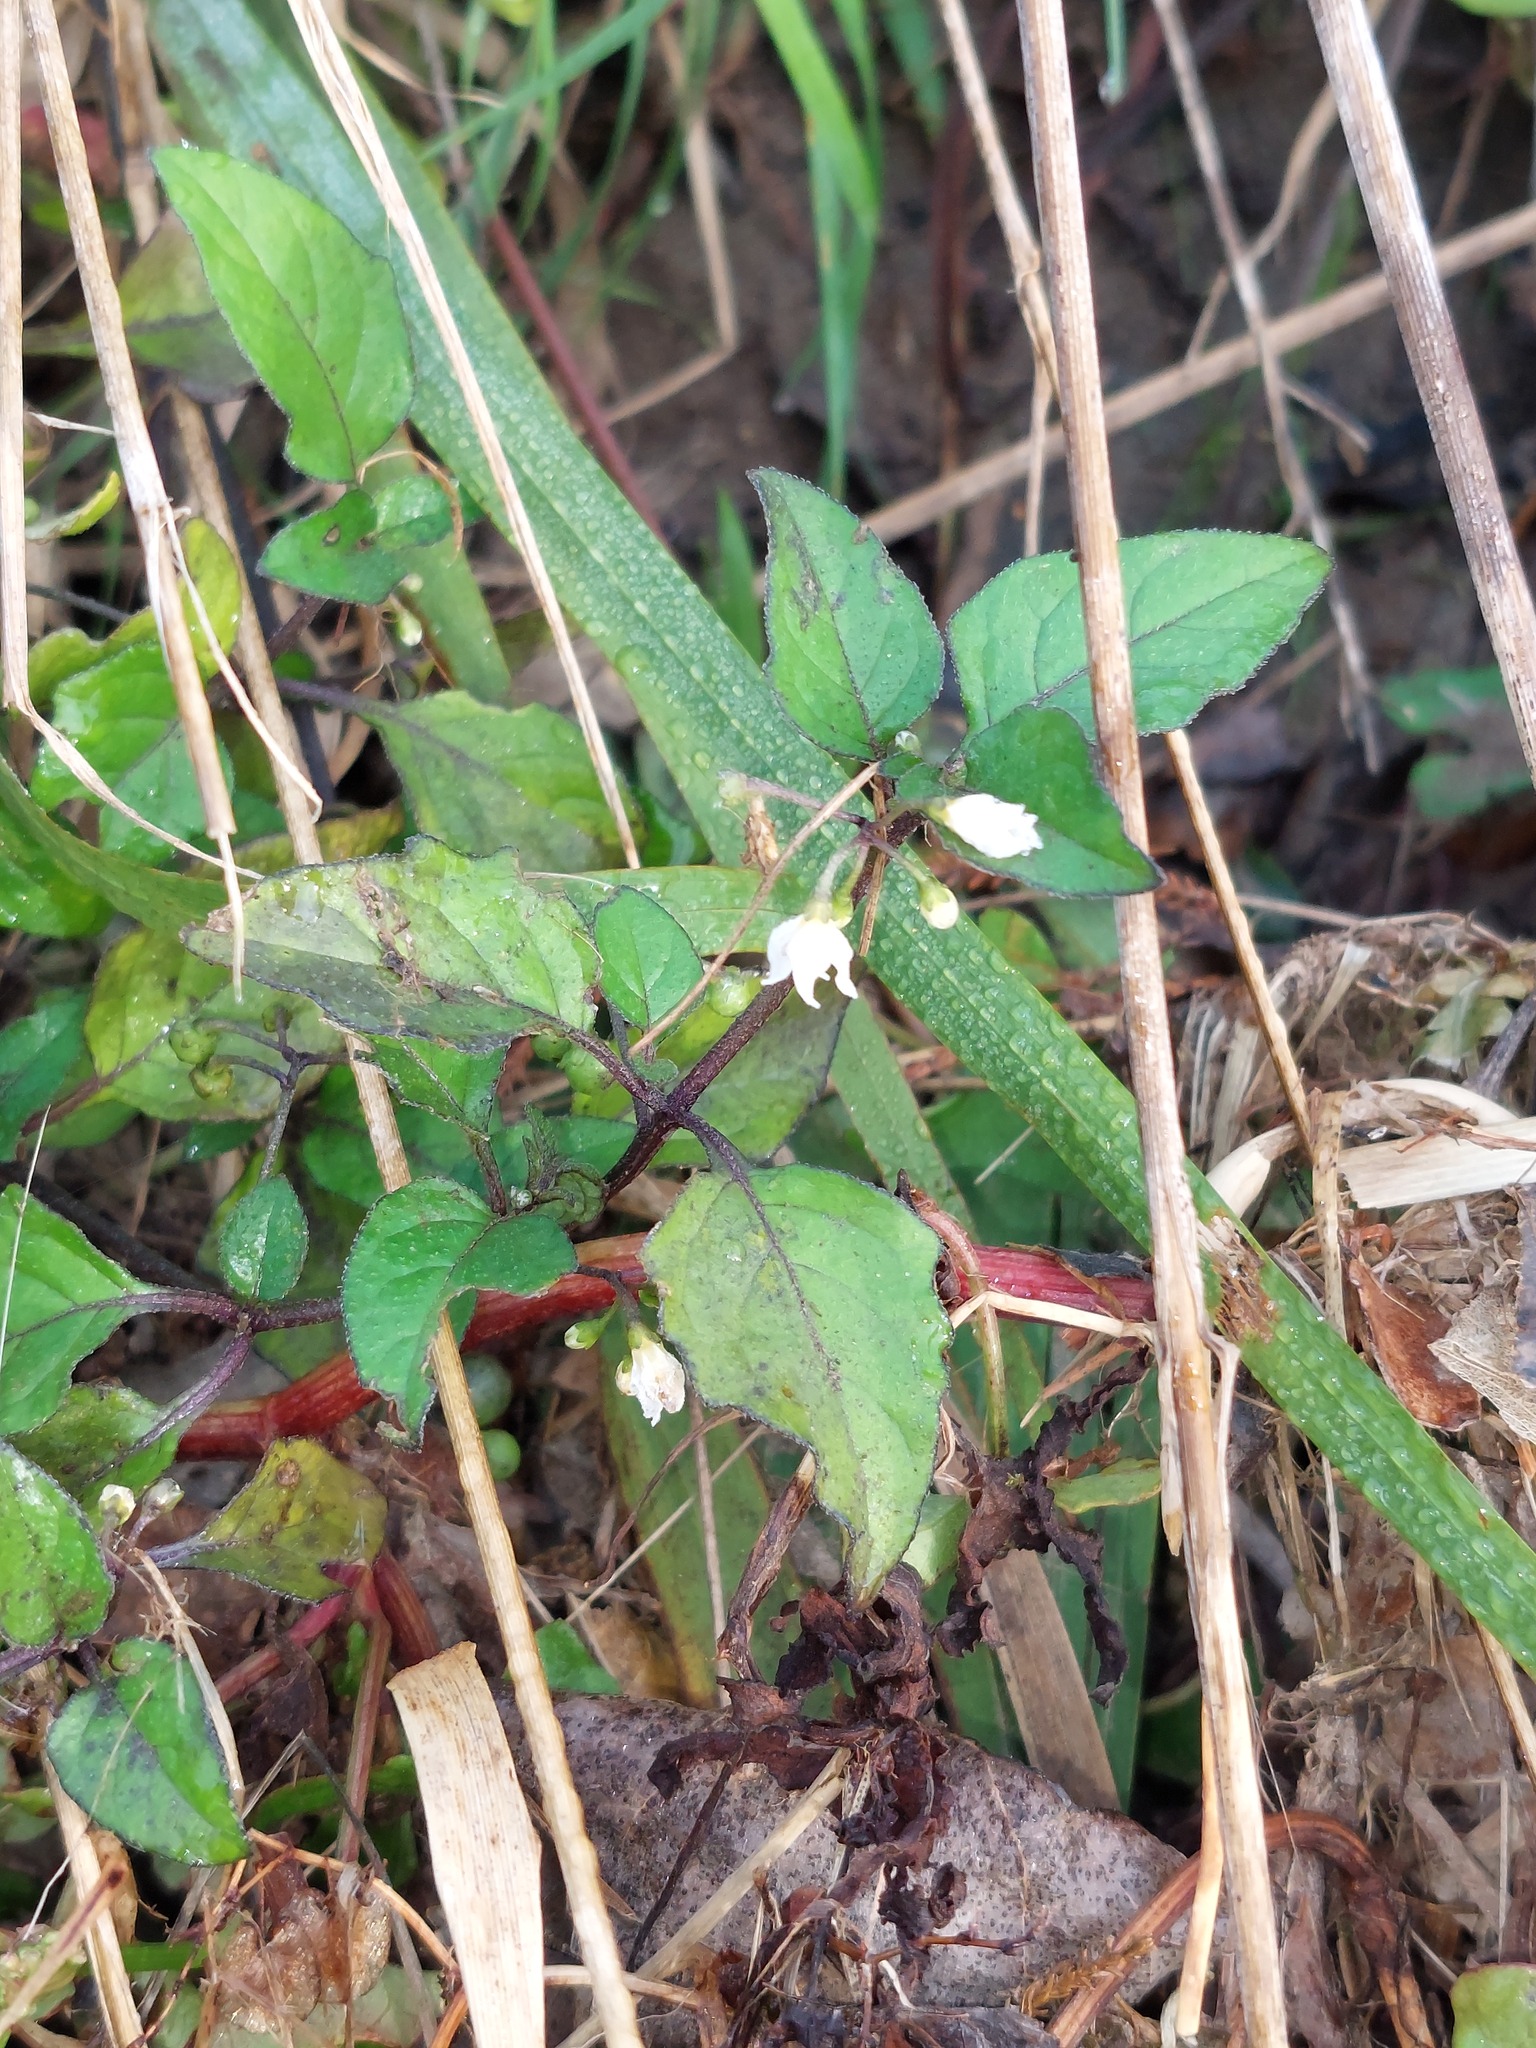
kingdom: Plantae
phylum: Tracheophyta
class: Magnoliopsida
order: Solanales
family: Solanaceae
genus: Solanum
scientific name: Solanum nigrum
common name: Black nightshade
